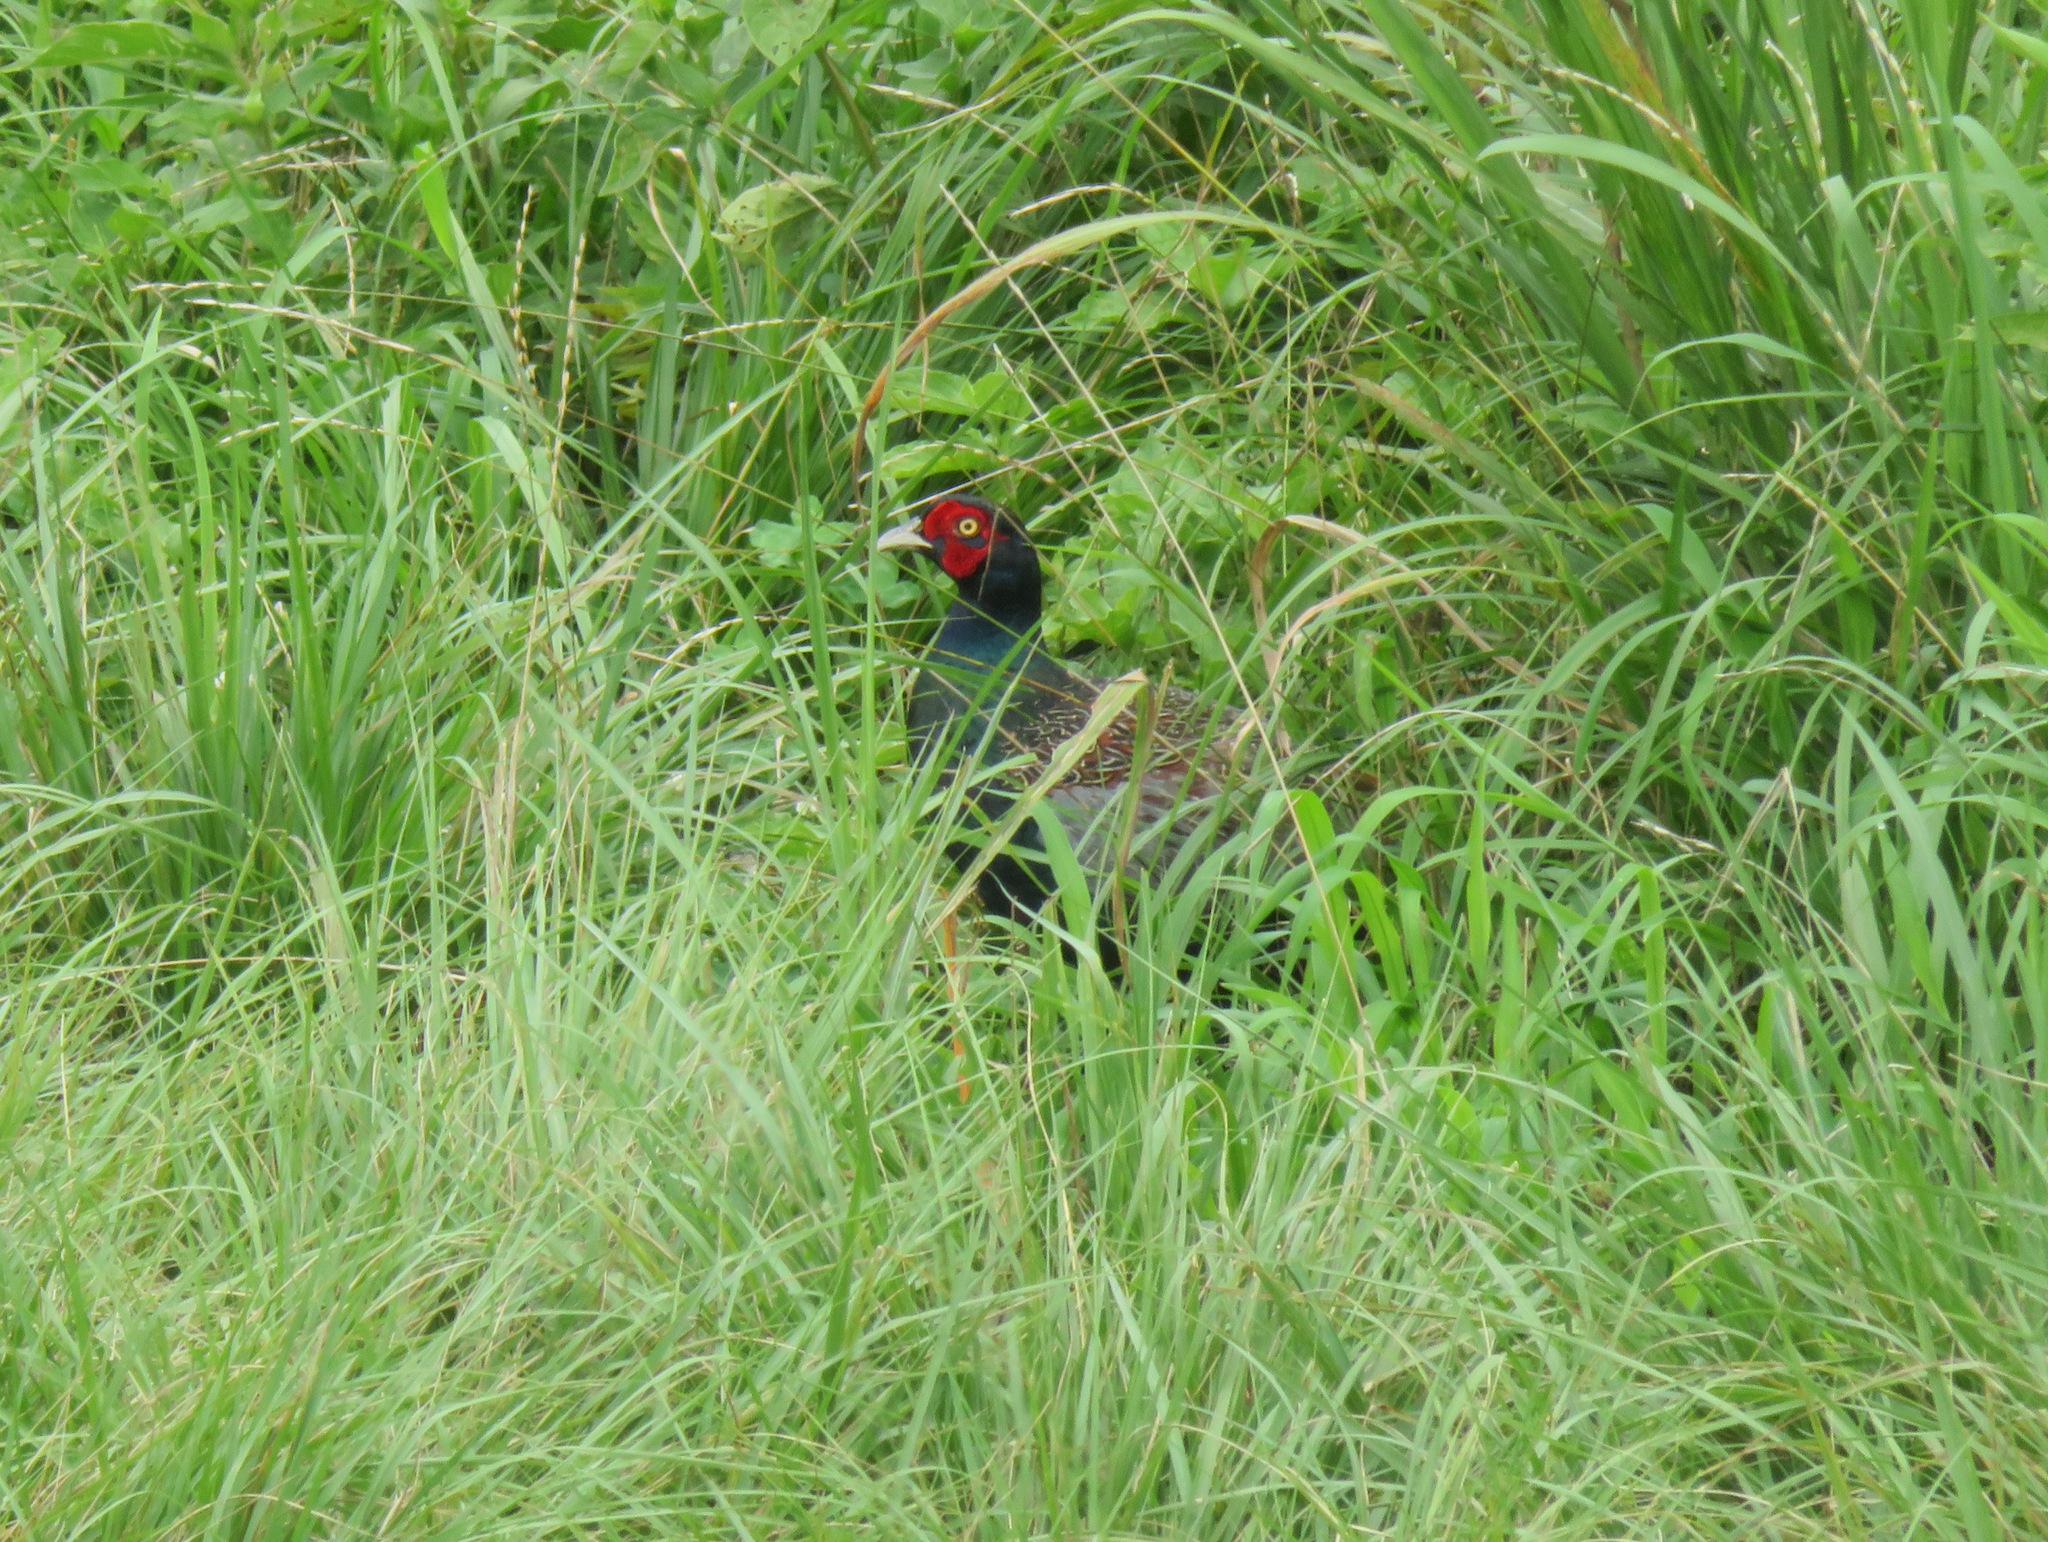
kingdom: Animalia
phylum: Chordata
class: Aves
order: Galliformes
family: Phasianidae
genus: Phasianus
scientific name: Phasianus versicolor
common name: Green pheasant
